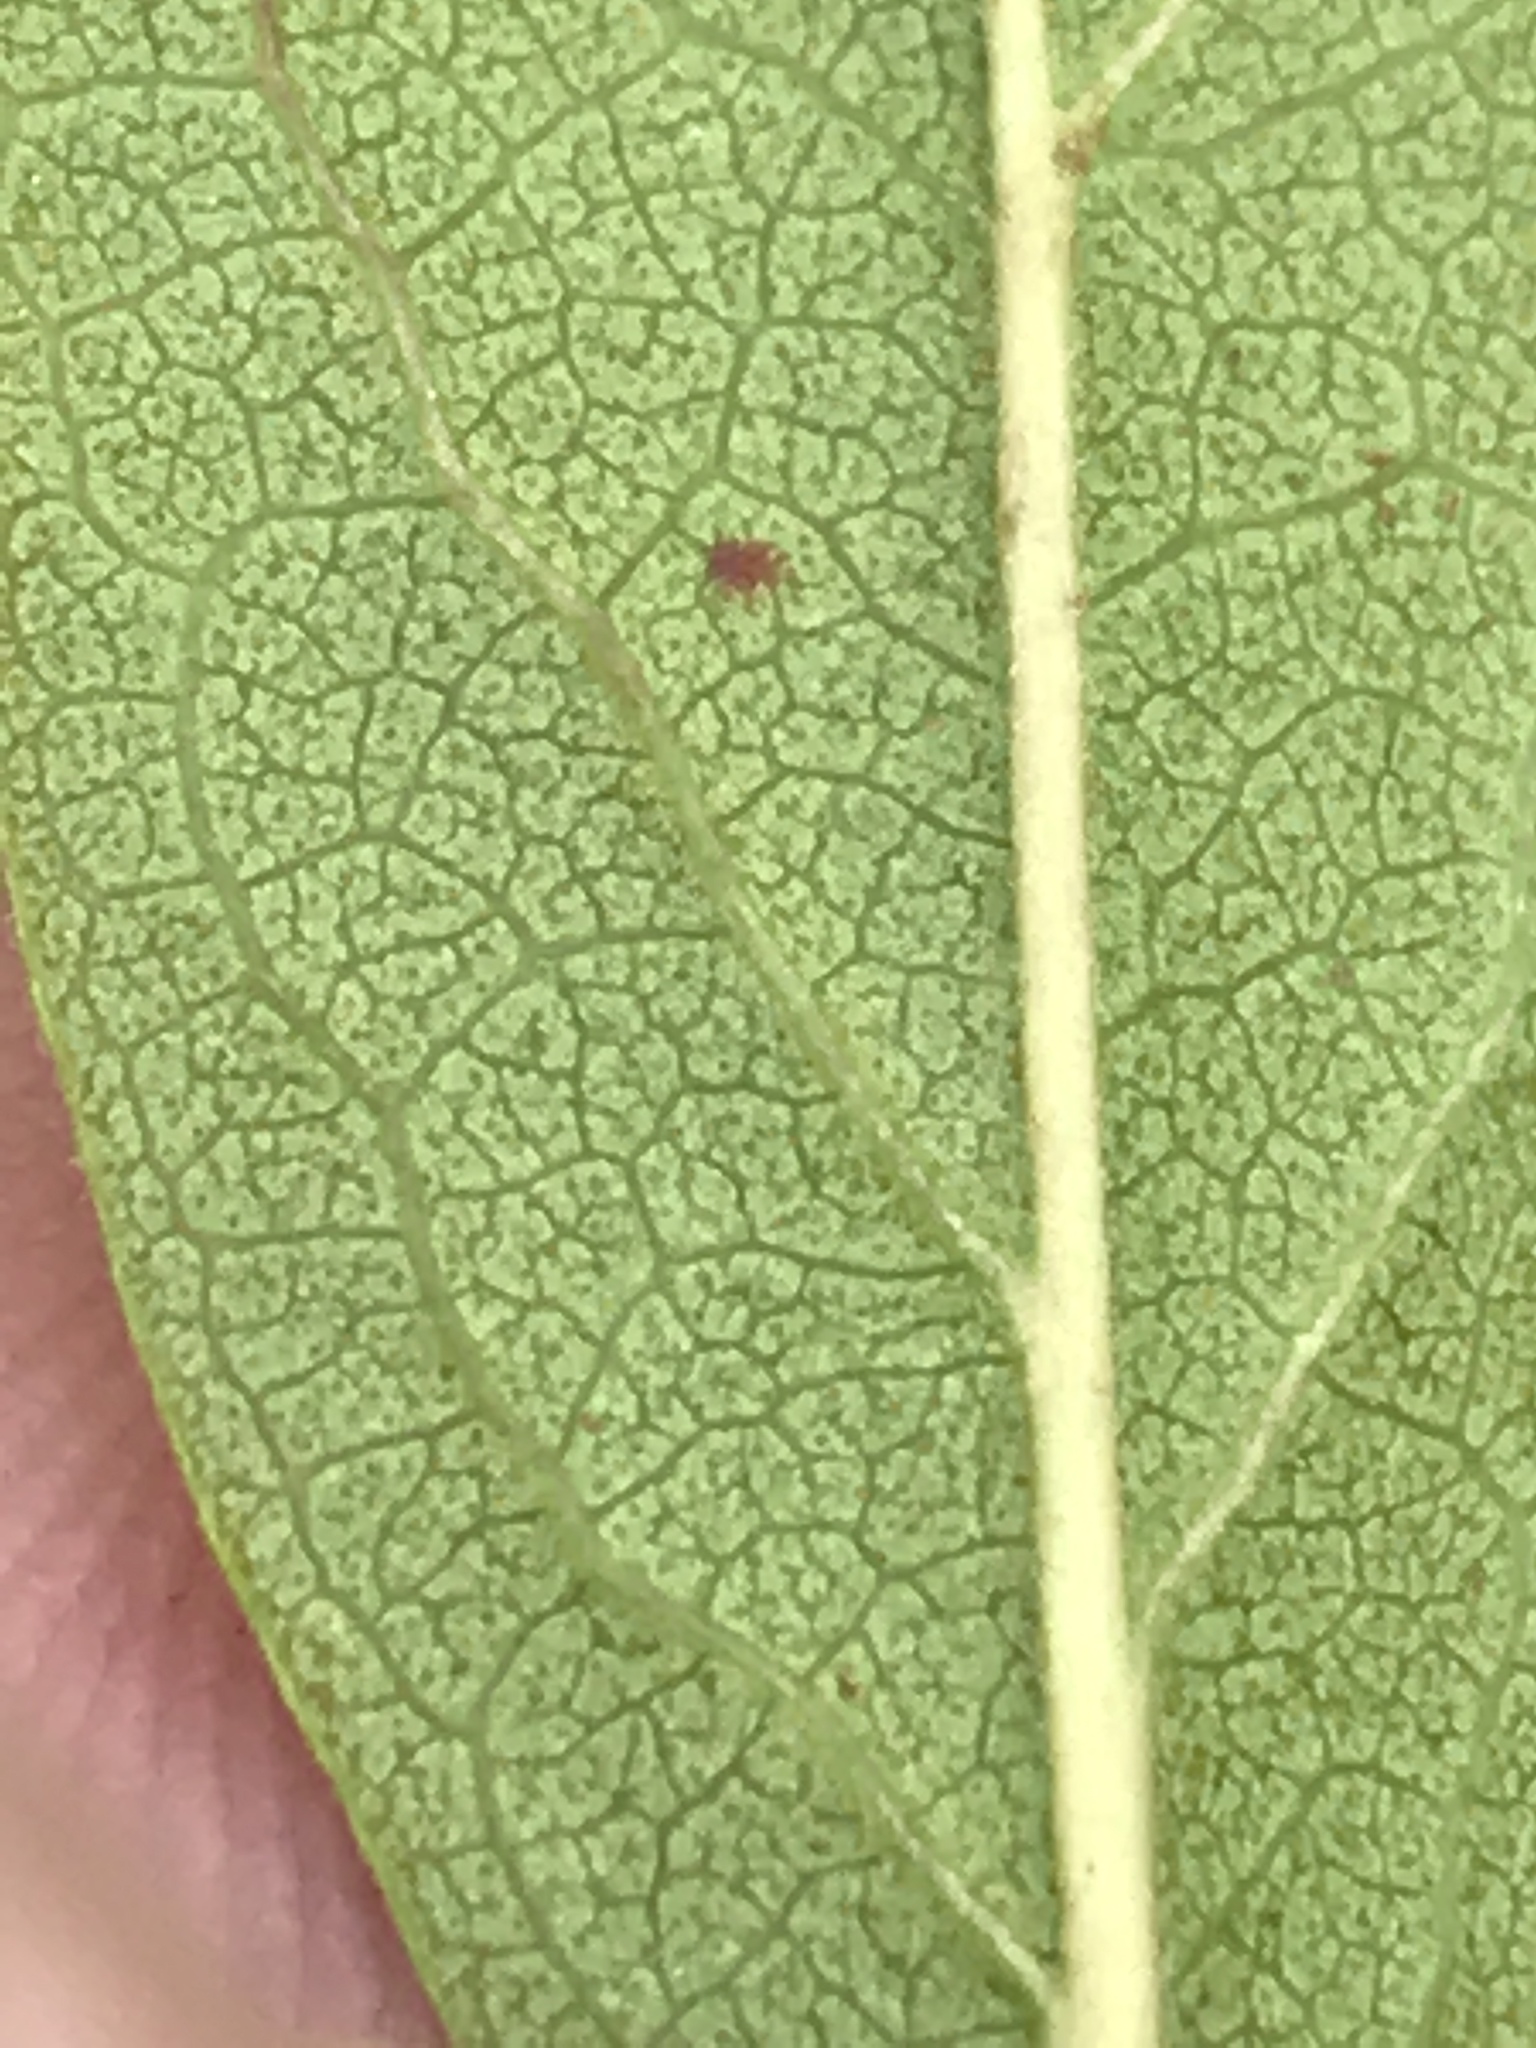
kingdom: Plantae
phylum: Tracheophyta
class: Magnoliopsida
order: Ericales
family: Ericaceae
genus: Gaylussacia
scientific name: Gaylussacia baccata
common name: Black huckleberry
